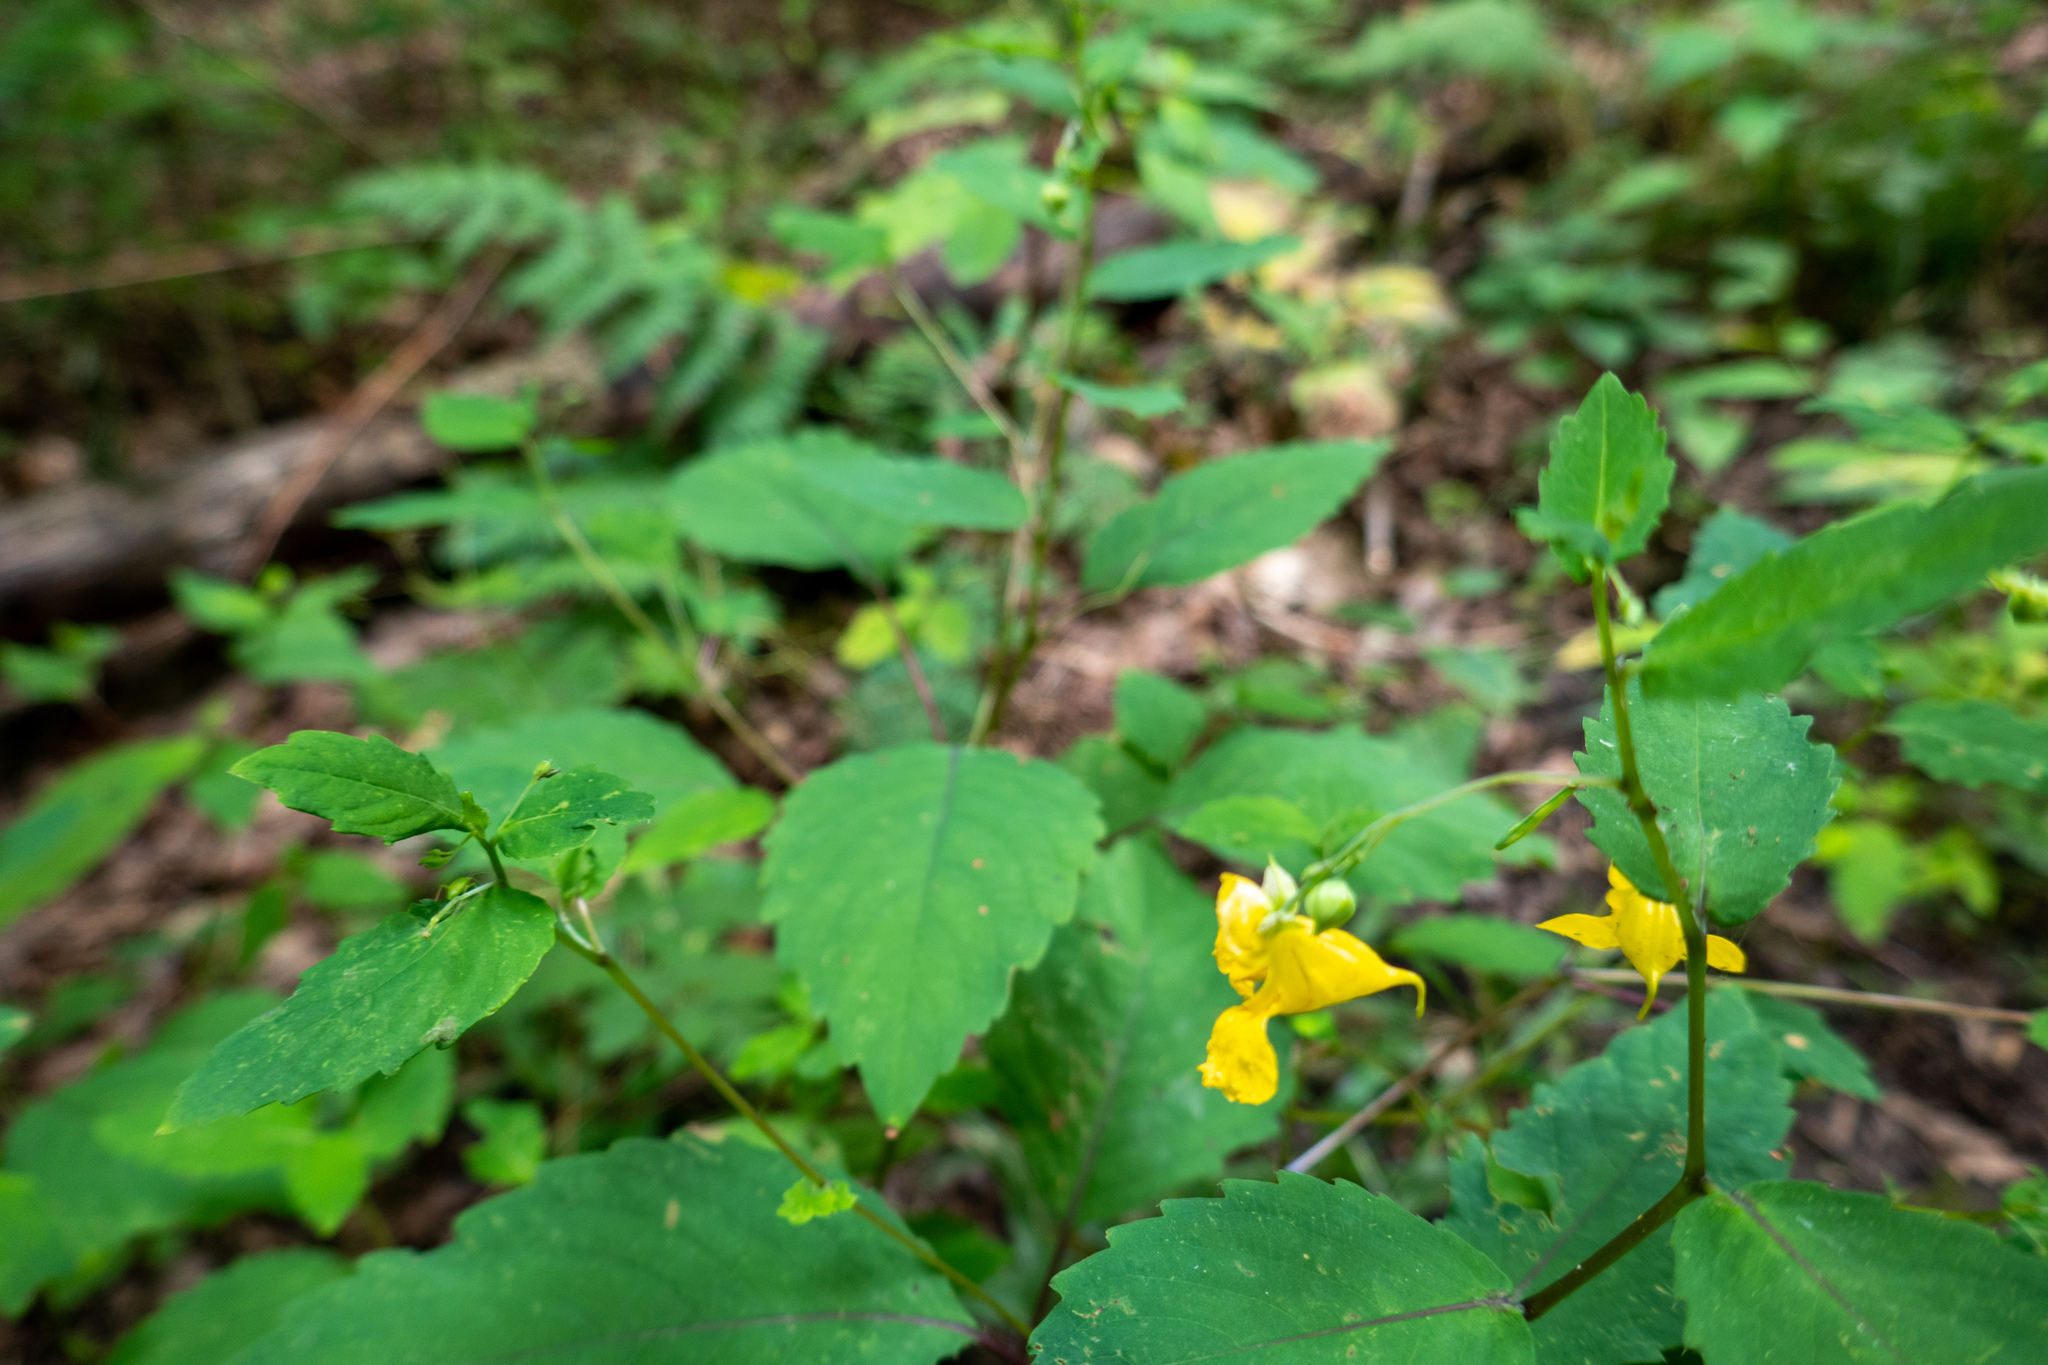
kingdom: Plantae
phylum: Tracheophyta
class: Magnoliopsida
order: Ericales
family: Balsaminaceae
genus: Impatiens
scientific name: Impatiens pallida
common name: Pale snapweed
